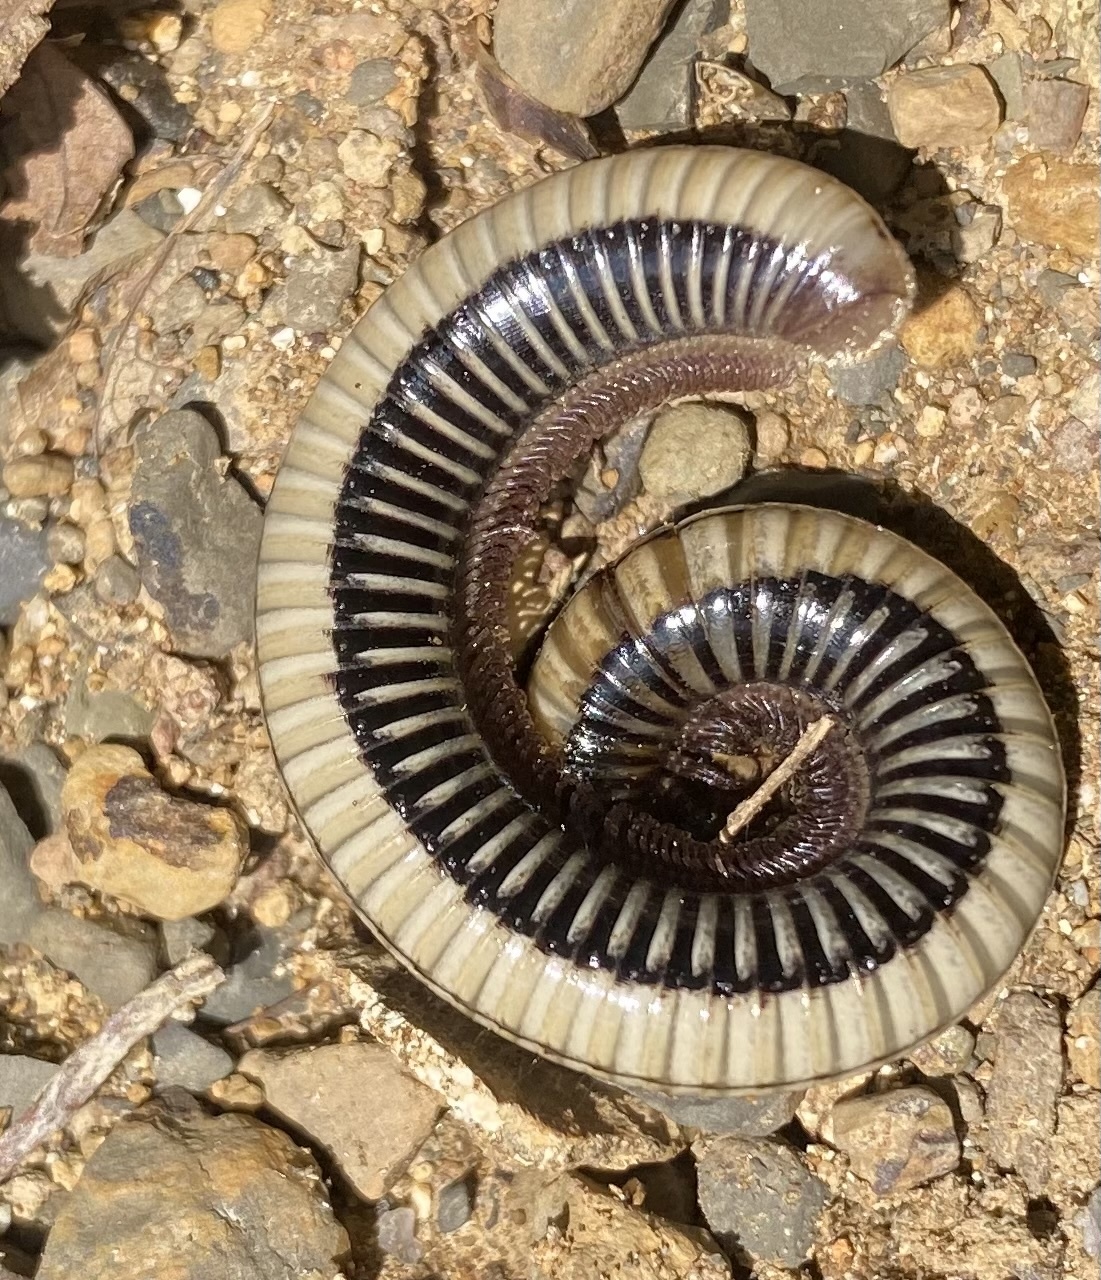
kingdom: Animalia
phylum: Arthropoda
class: Diplopoda
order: Julida
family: Julidae
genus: Pachyiulus
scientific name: Pachyiulus krivolutskyi
